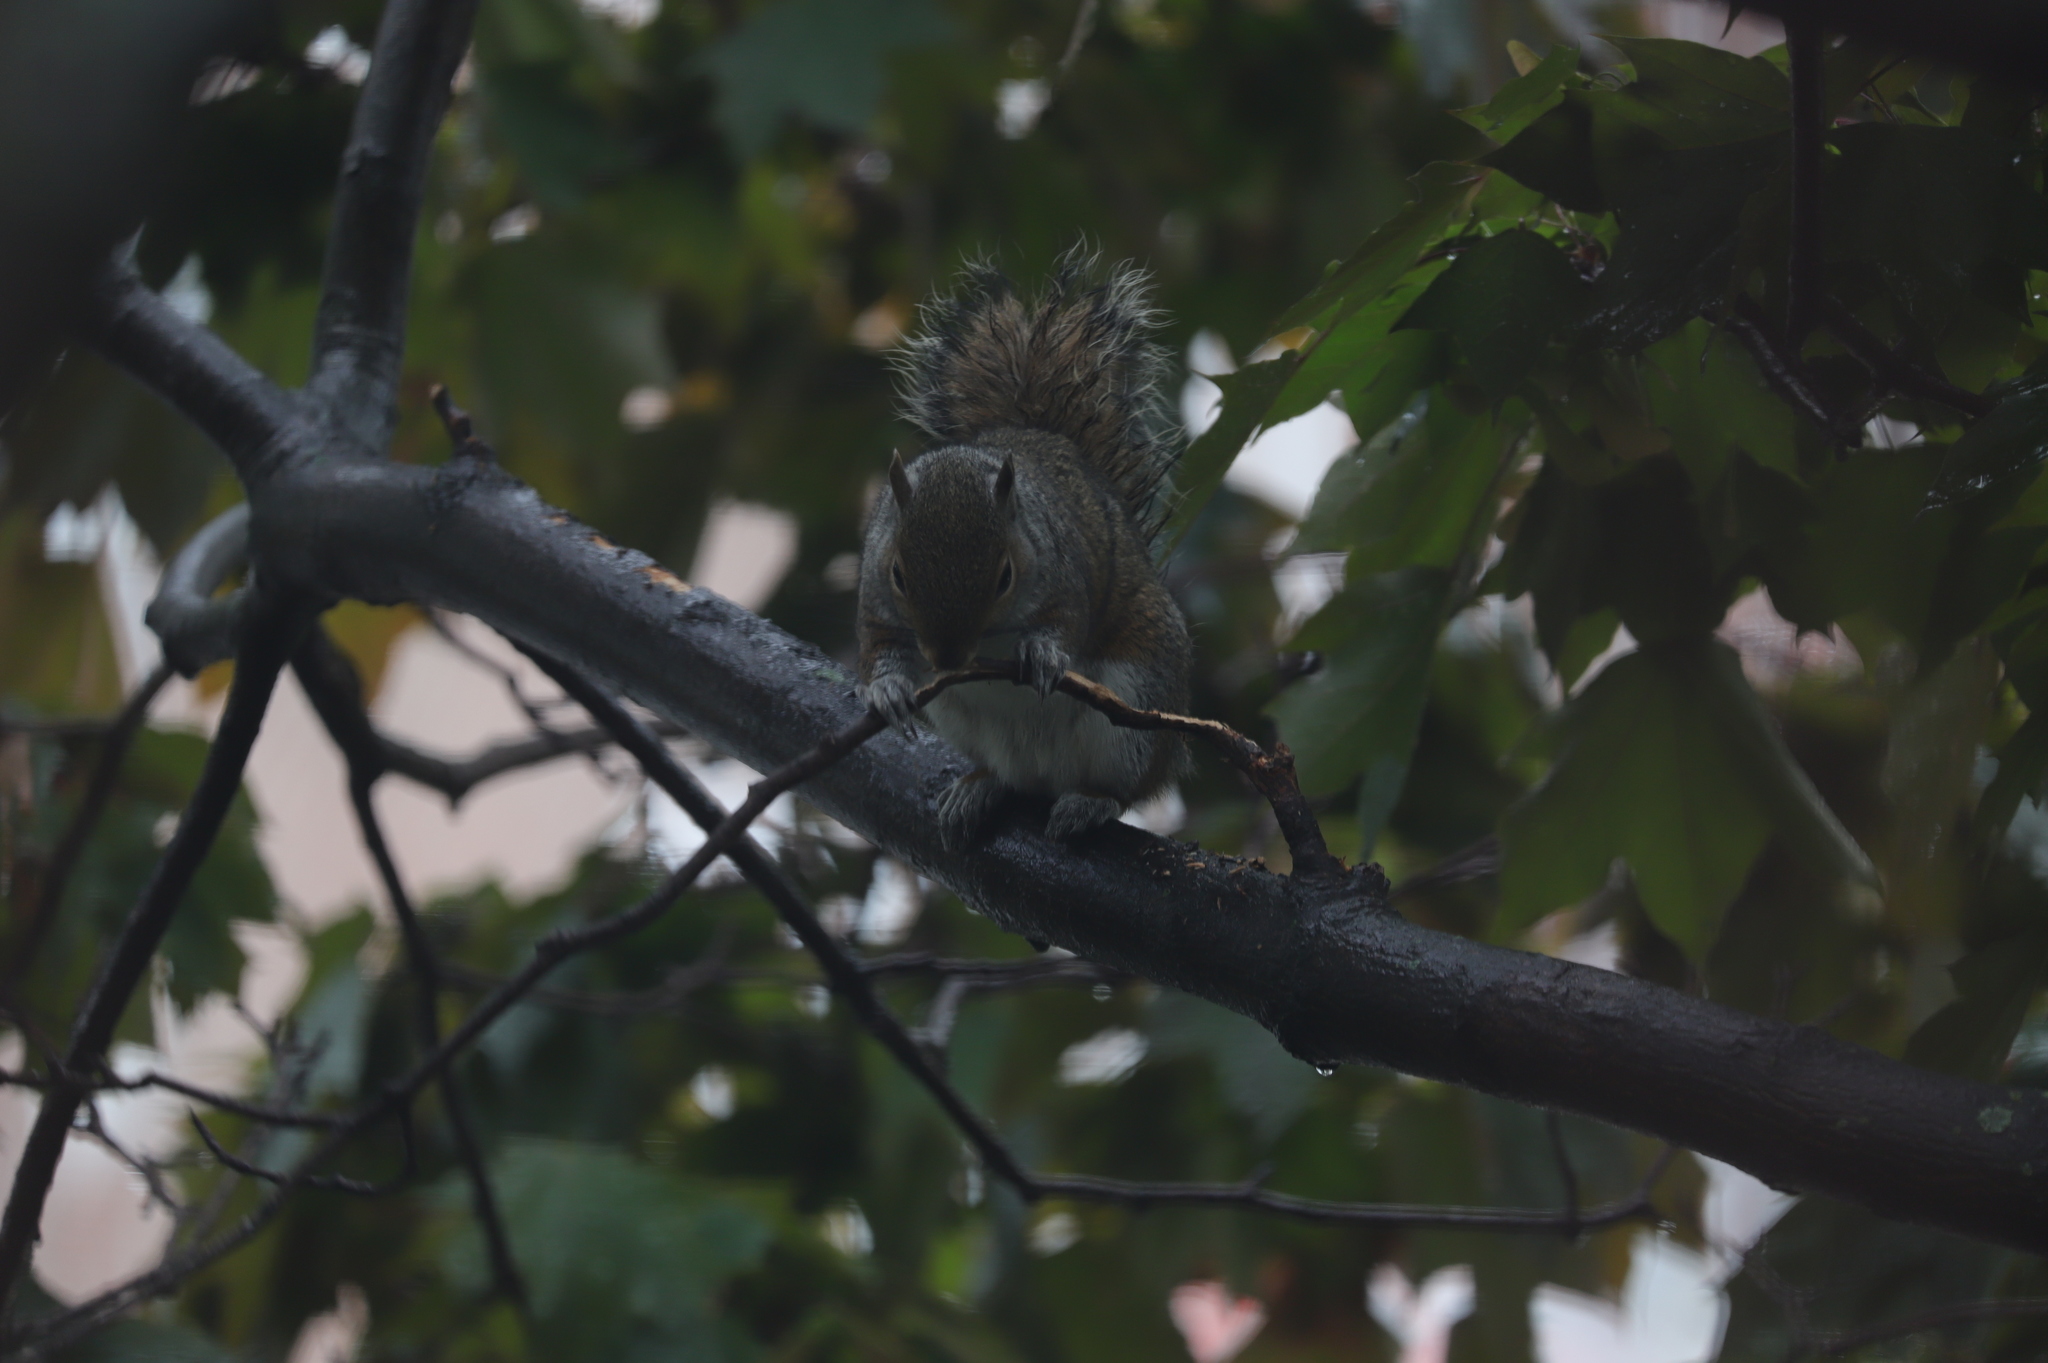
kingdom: Animalia
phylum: Chordata
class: Mammalia
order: Rodentia
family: Sciuridae
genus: Sciurus
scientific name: Sciurus carolinensis
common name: Eastern gray squirrel
